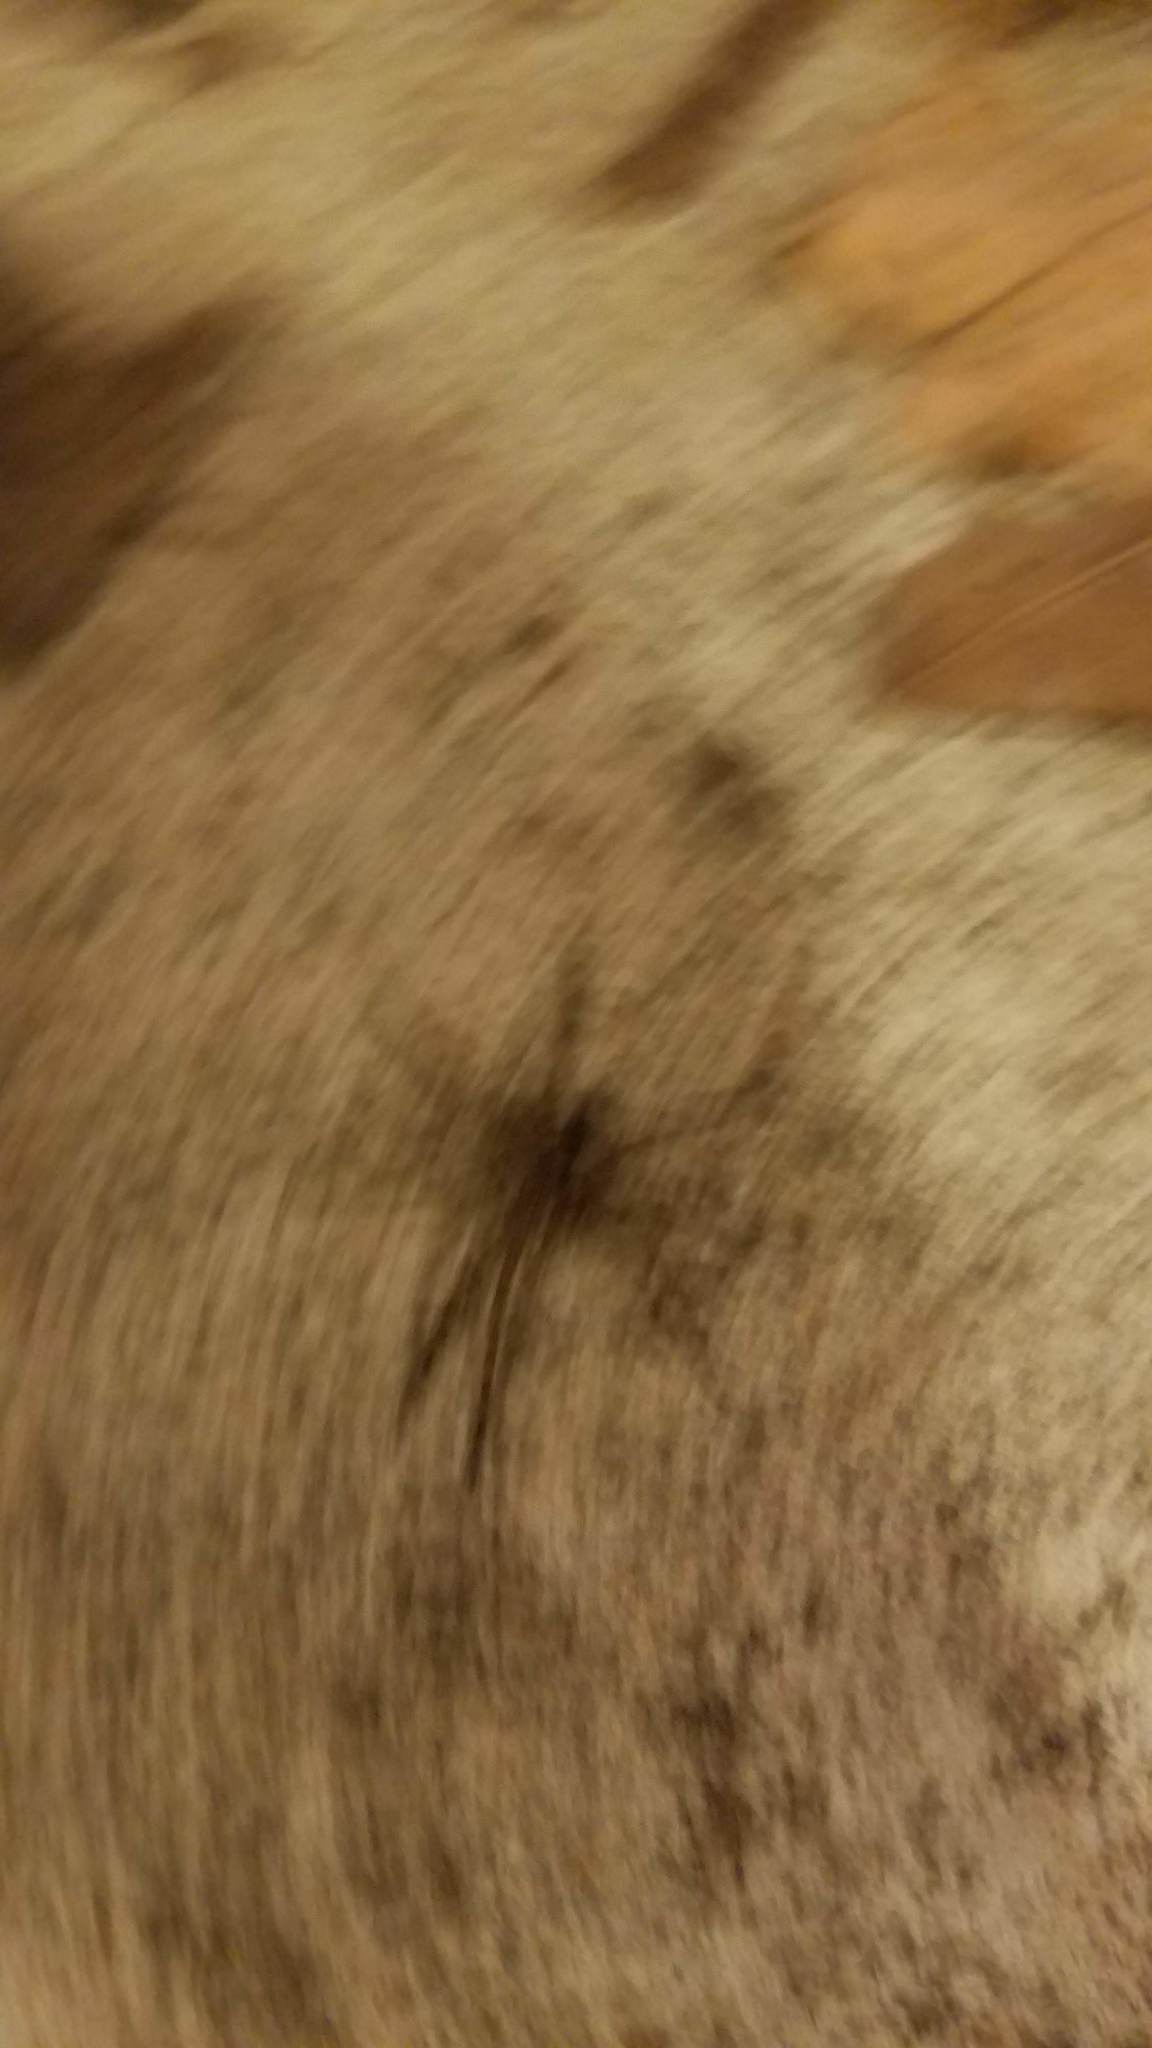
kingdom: Animalia
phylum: Arthropoda
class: Arachnida
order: Araneae
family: Pisauridae
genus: Dolomedes
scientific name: Dolomedes tenebrosus
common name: Dark fishing spider
